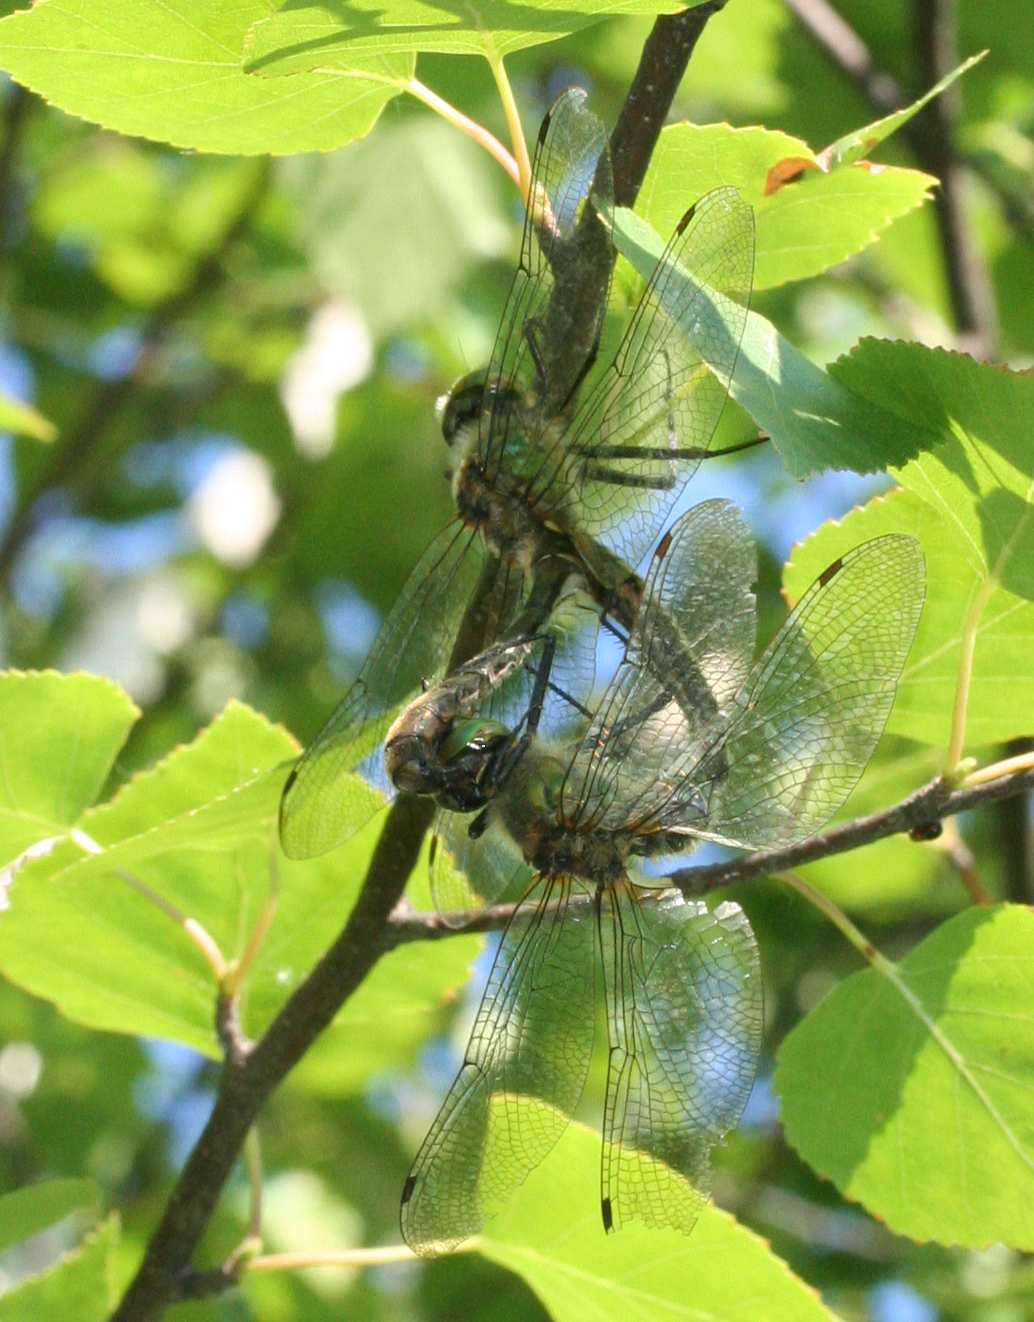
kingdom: Animalia
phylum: Arthropoda
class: Insecta
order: Odonata
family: Corduliidae
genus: Cordulia
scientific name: Cordulia aenea
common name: Downy emerald
